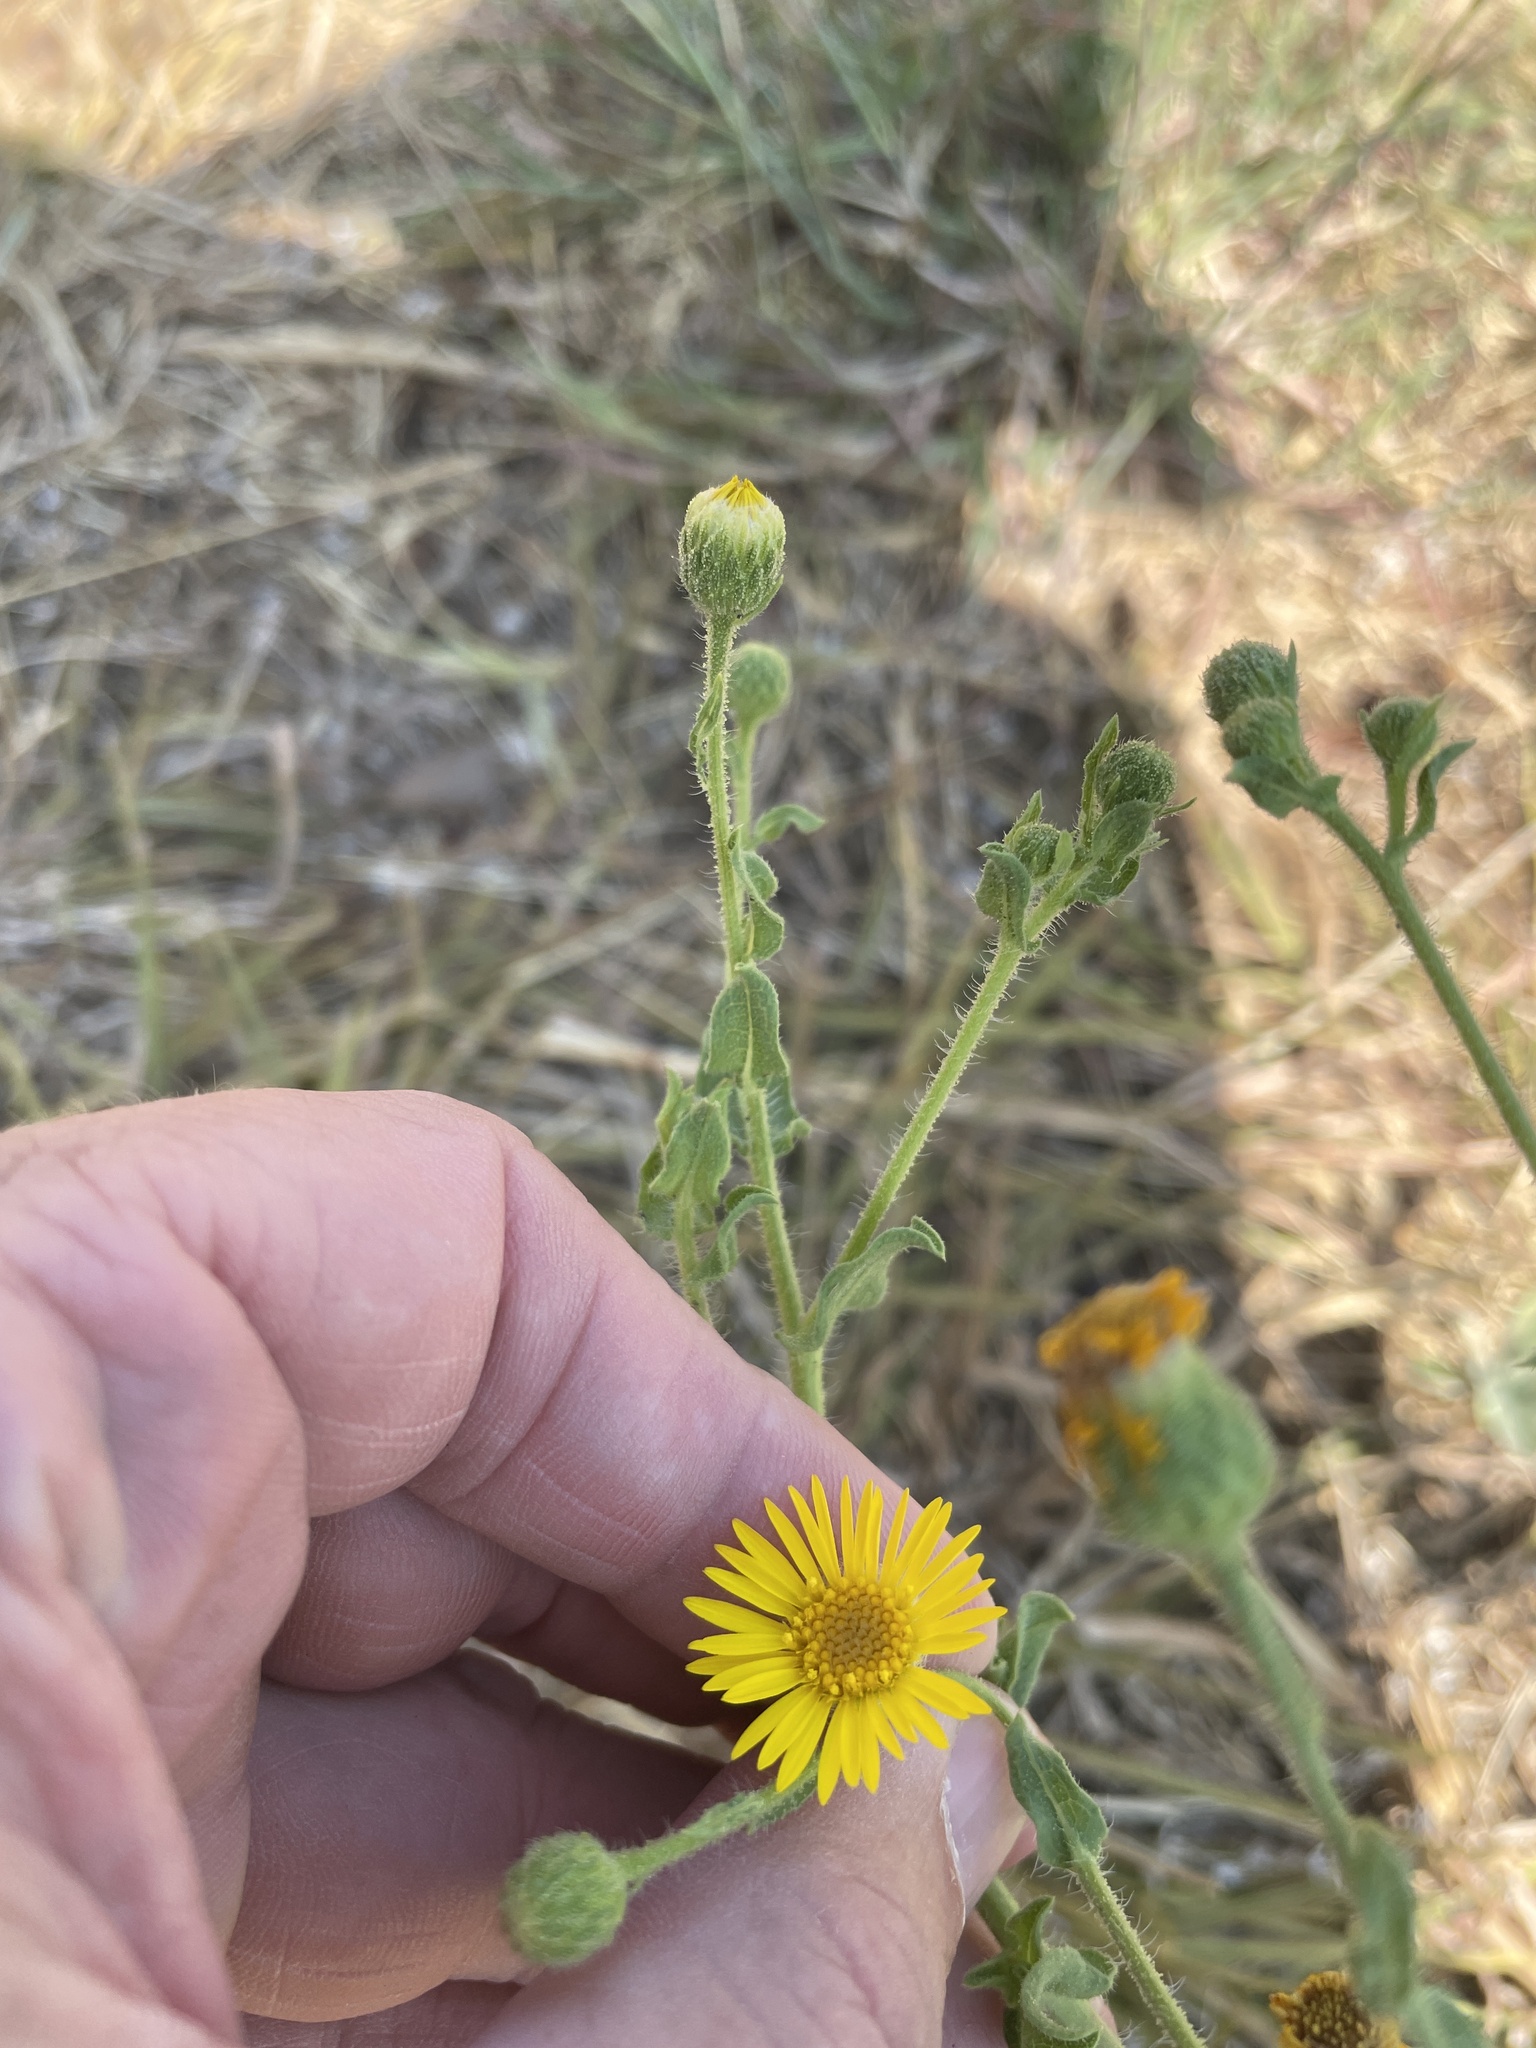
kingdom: Plantae
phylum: Tracheophyta
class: Magnoliopsida
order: Asterales
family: Asteraceae
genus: Heterotheca
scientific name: Heterotheca subaxillaris
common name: Camphorweed
